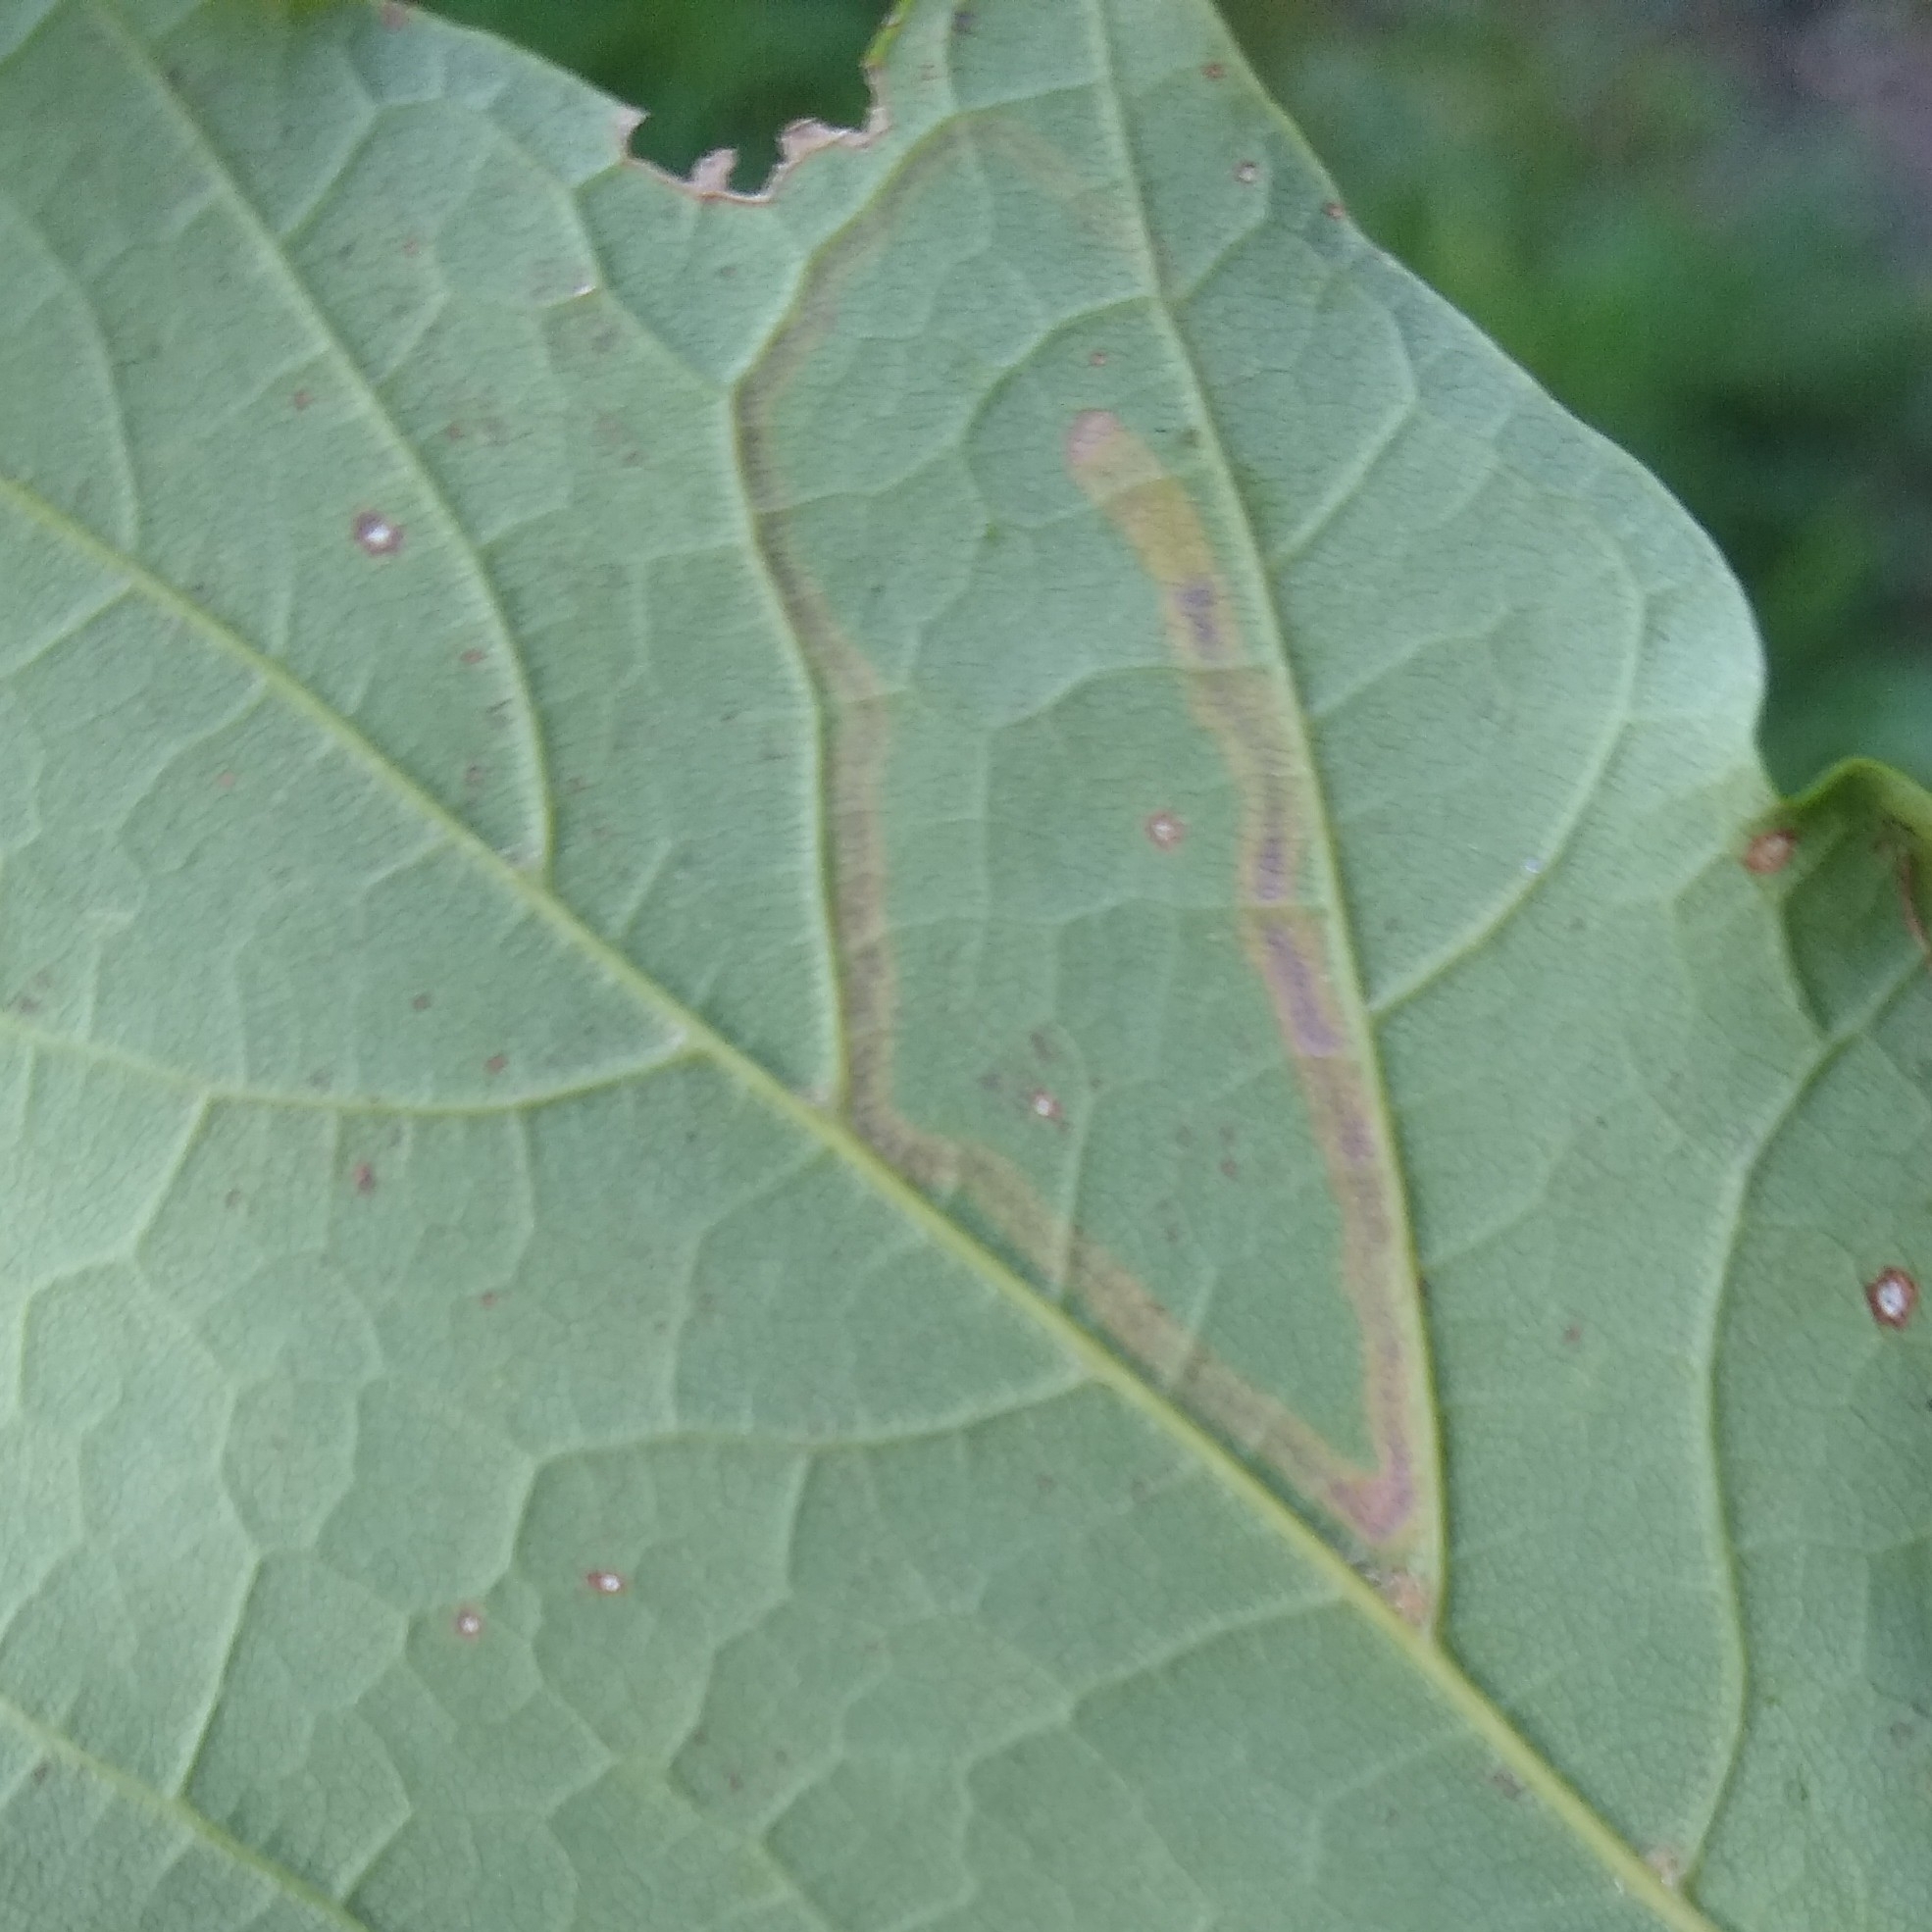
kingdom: Animalia
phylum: Arthropoda
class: Insecta
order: Lepidoptera
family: Nepticulidae
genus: Glaucolepis
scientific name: Glaucolepis saccharella
